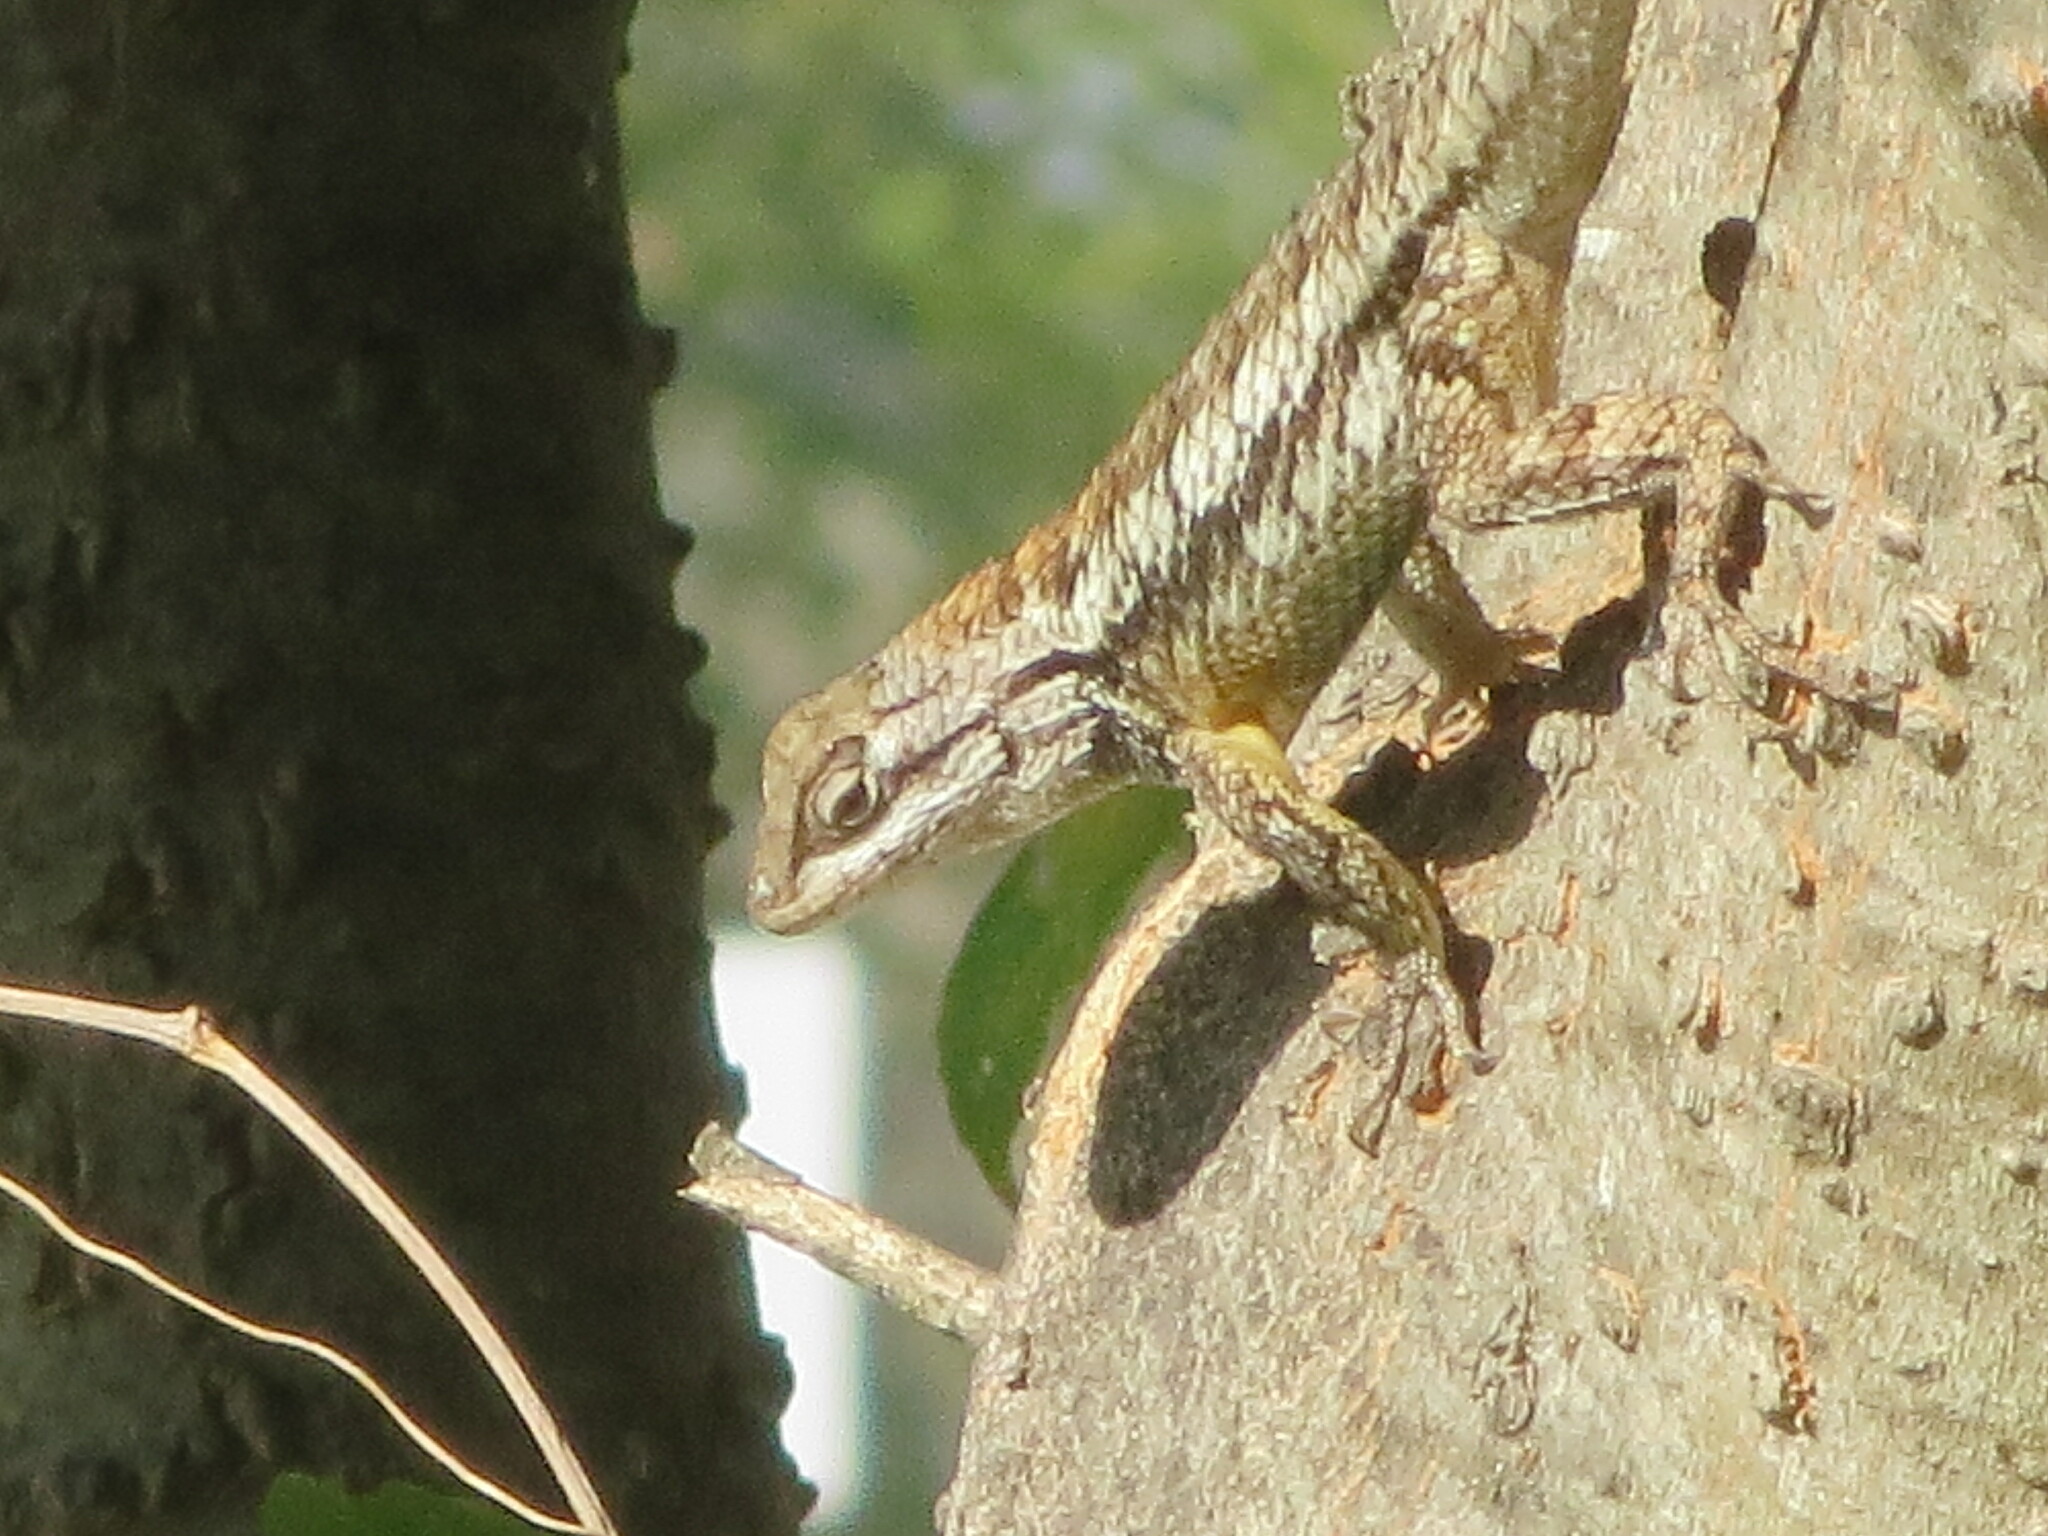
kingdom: Animalia
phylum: Chordata
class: Squamata
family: Phrynosomatidae
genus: Sceloporus
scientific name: Sceloporus olivaceus
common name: Texas spiny lizard
